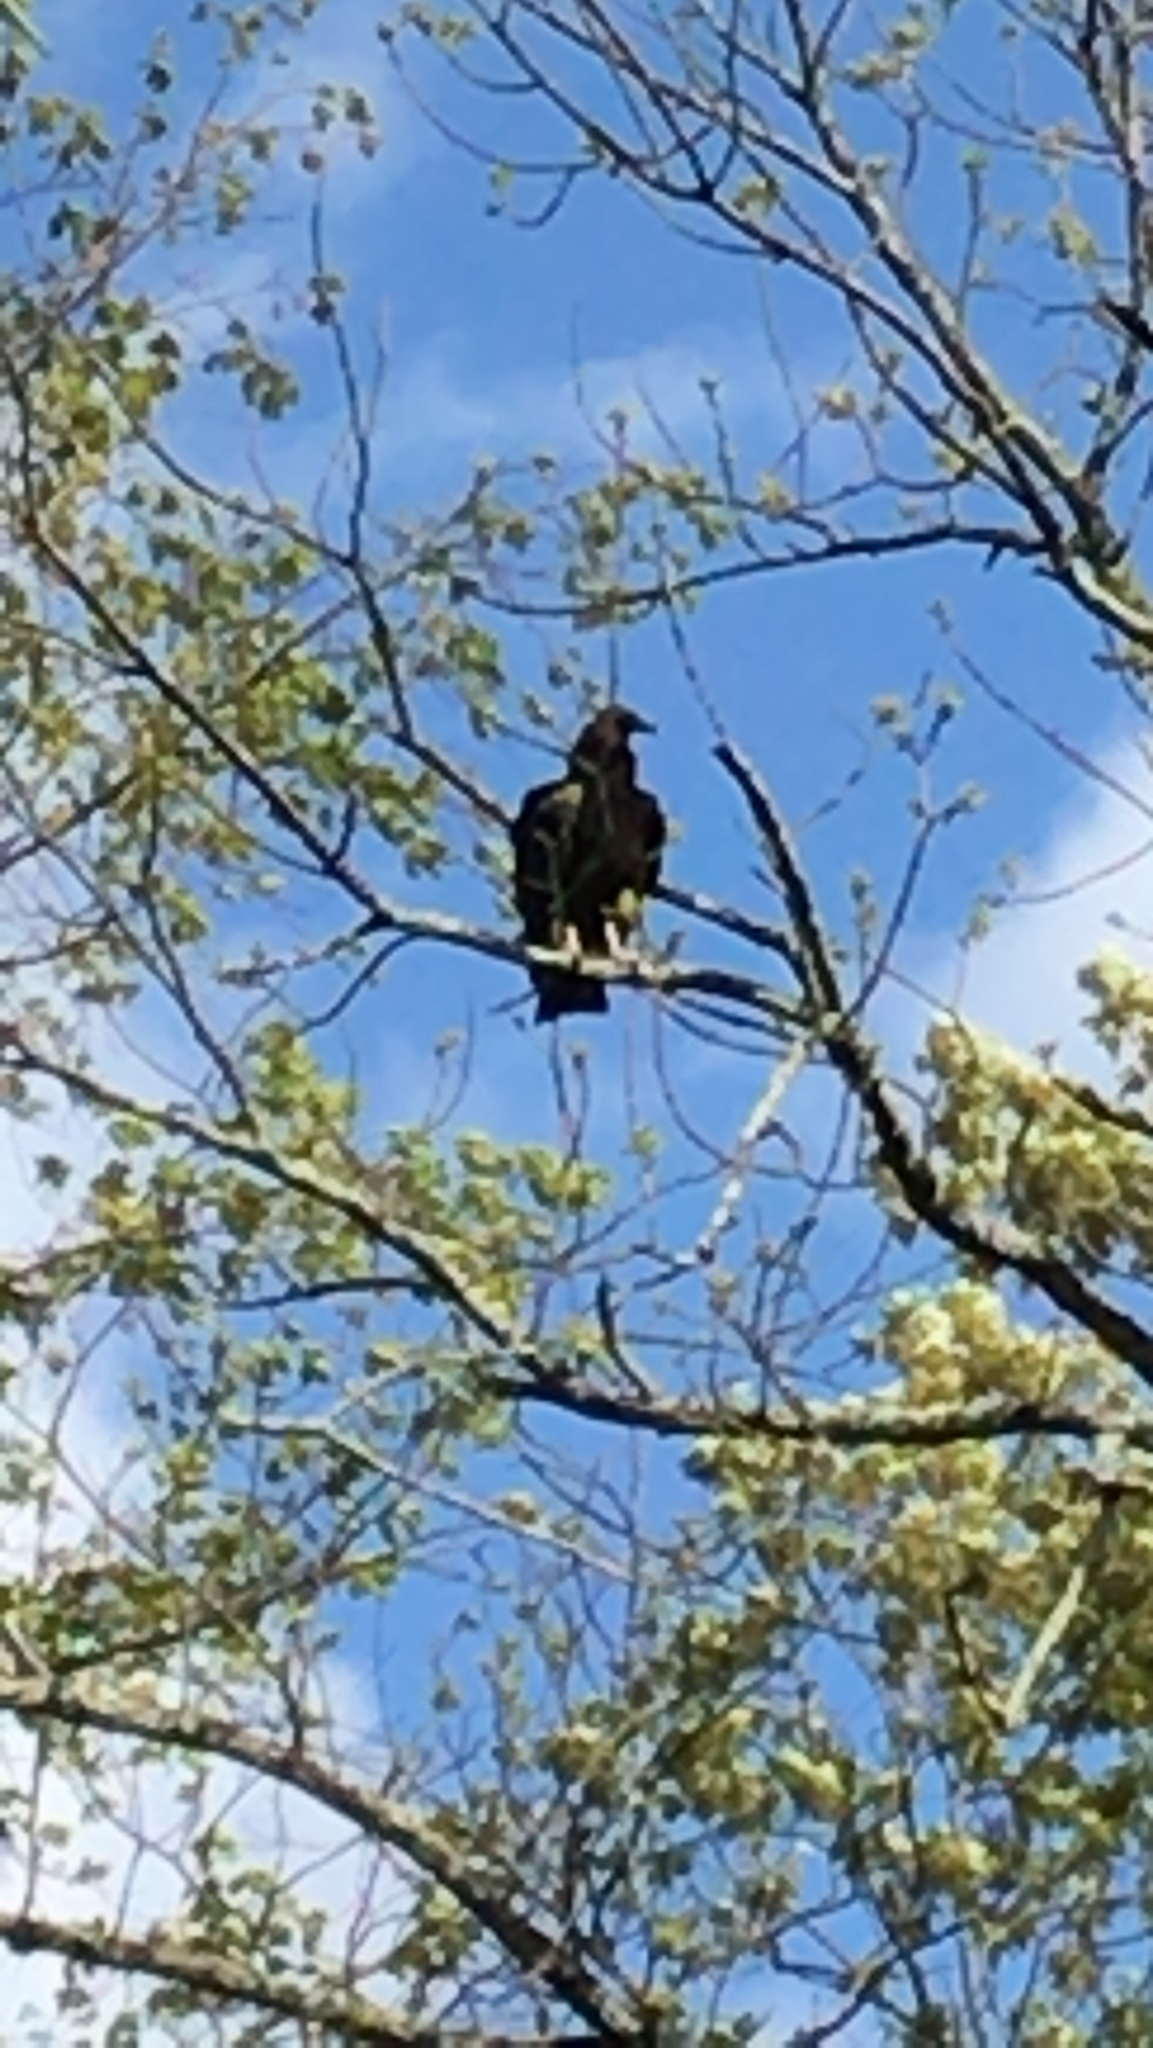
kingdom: Animalia
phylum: Chordata
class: Aves
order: Accipitriformes
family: Cathartidae
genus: Coragyps
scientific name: Coragyps atratus
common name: Black vulture
